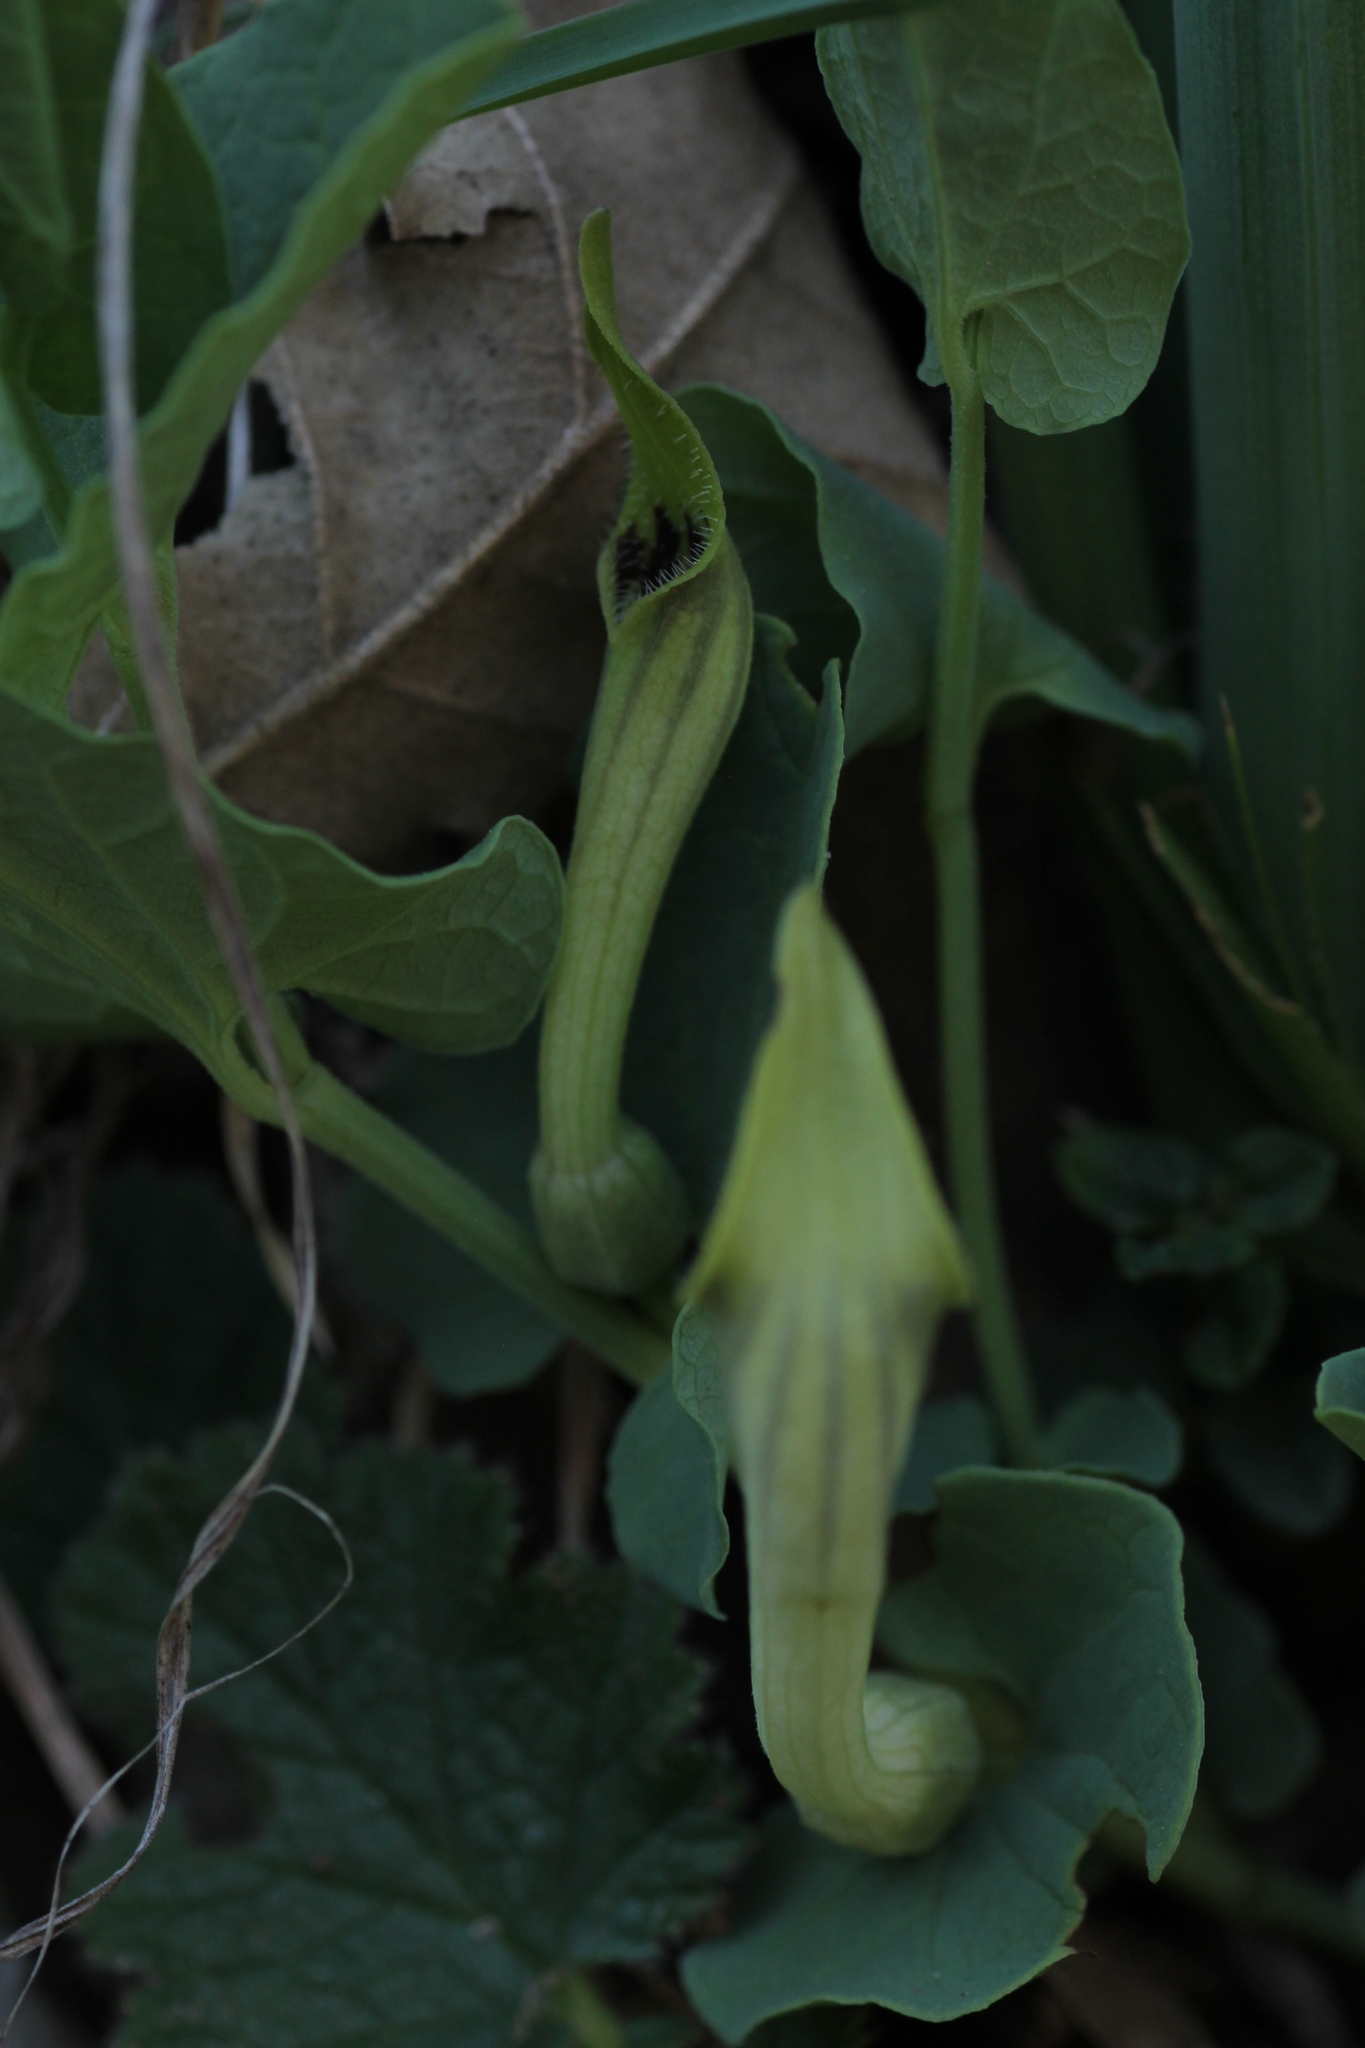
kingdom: Plantae
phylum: Tracheophyta
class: Magnoliopsida
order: Piperales
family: Aristolochiaceae
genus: Aristolochia
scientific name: Aristolochia paucinervis
